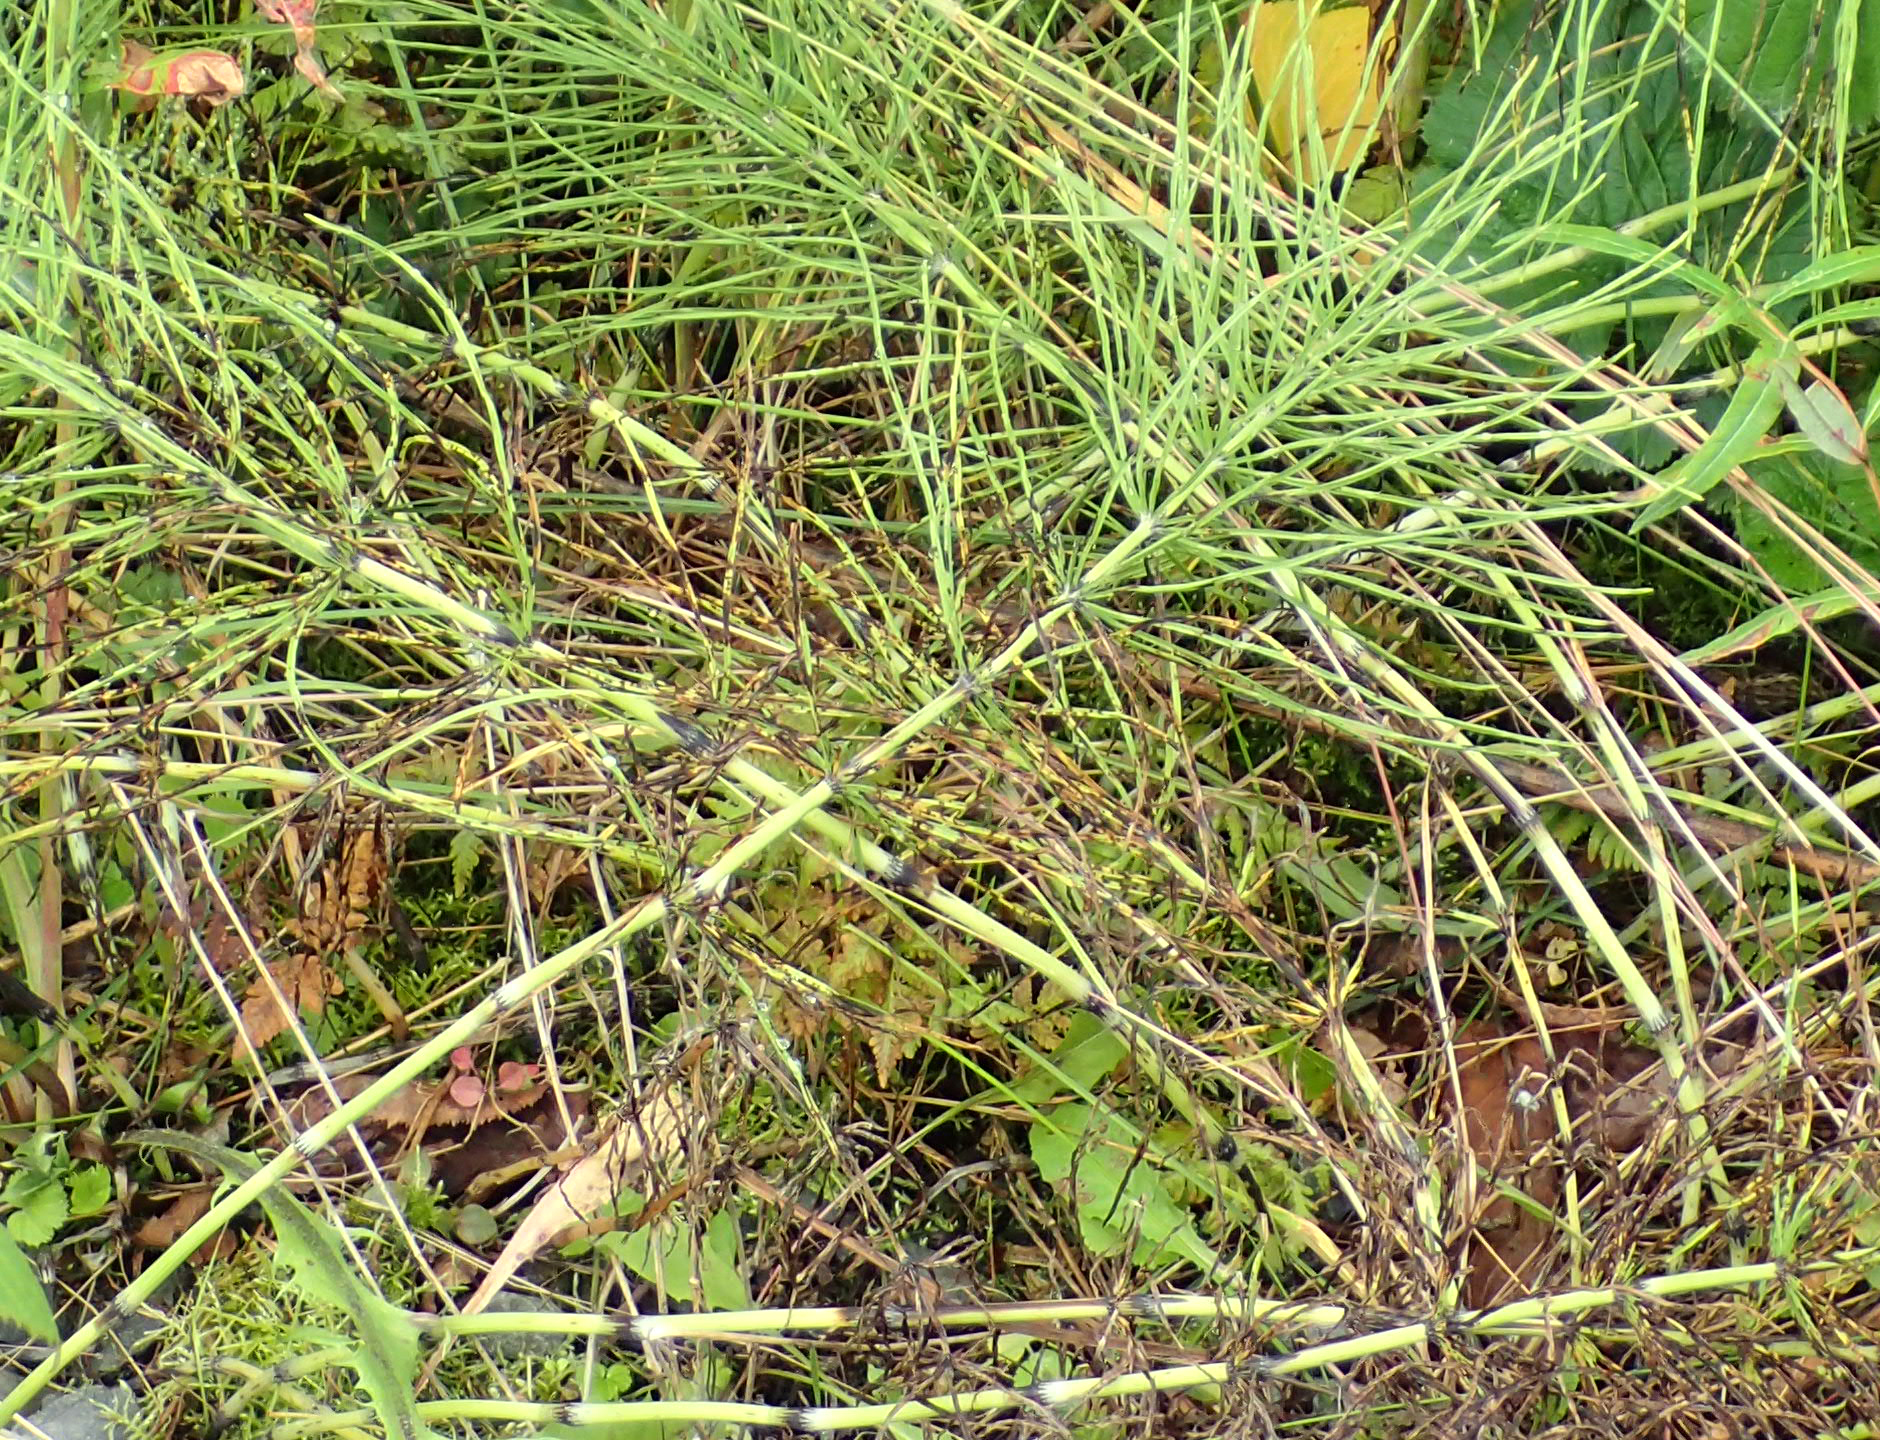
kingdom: Plantae
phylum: Tracheophyta
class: Polypodiopsida
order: Equisetales
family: Equisetaceae
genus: Equisetum
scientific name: Equisetum arvense
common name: Field horsetail
